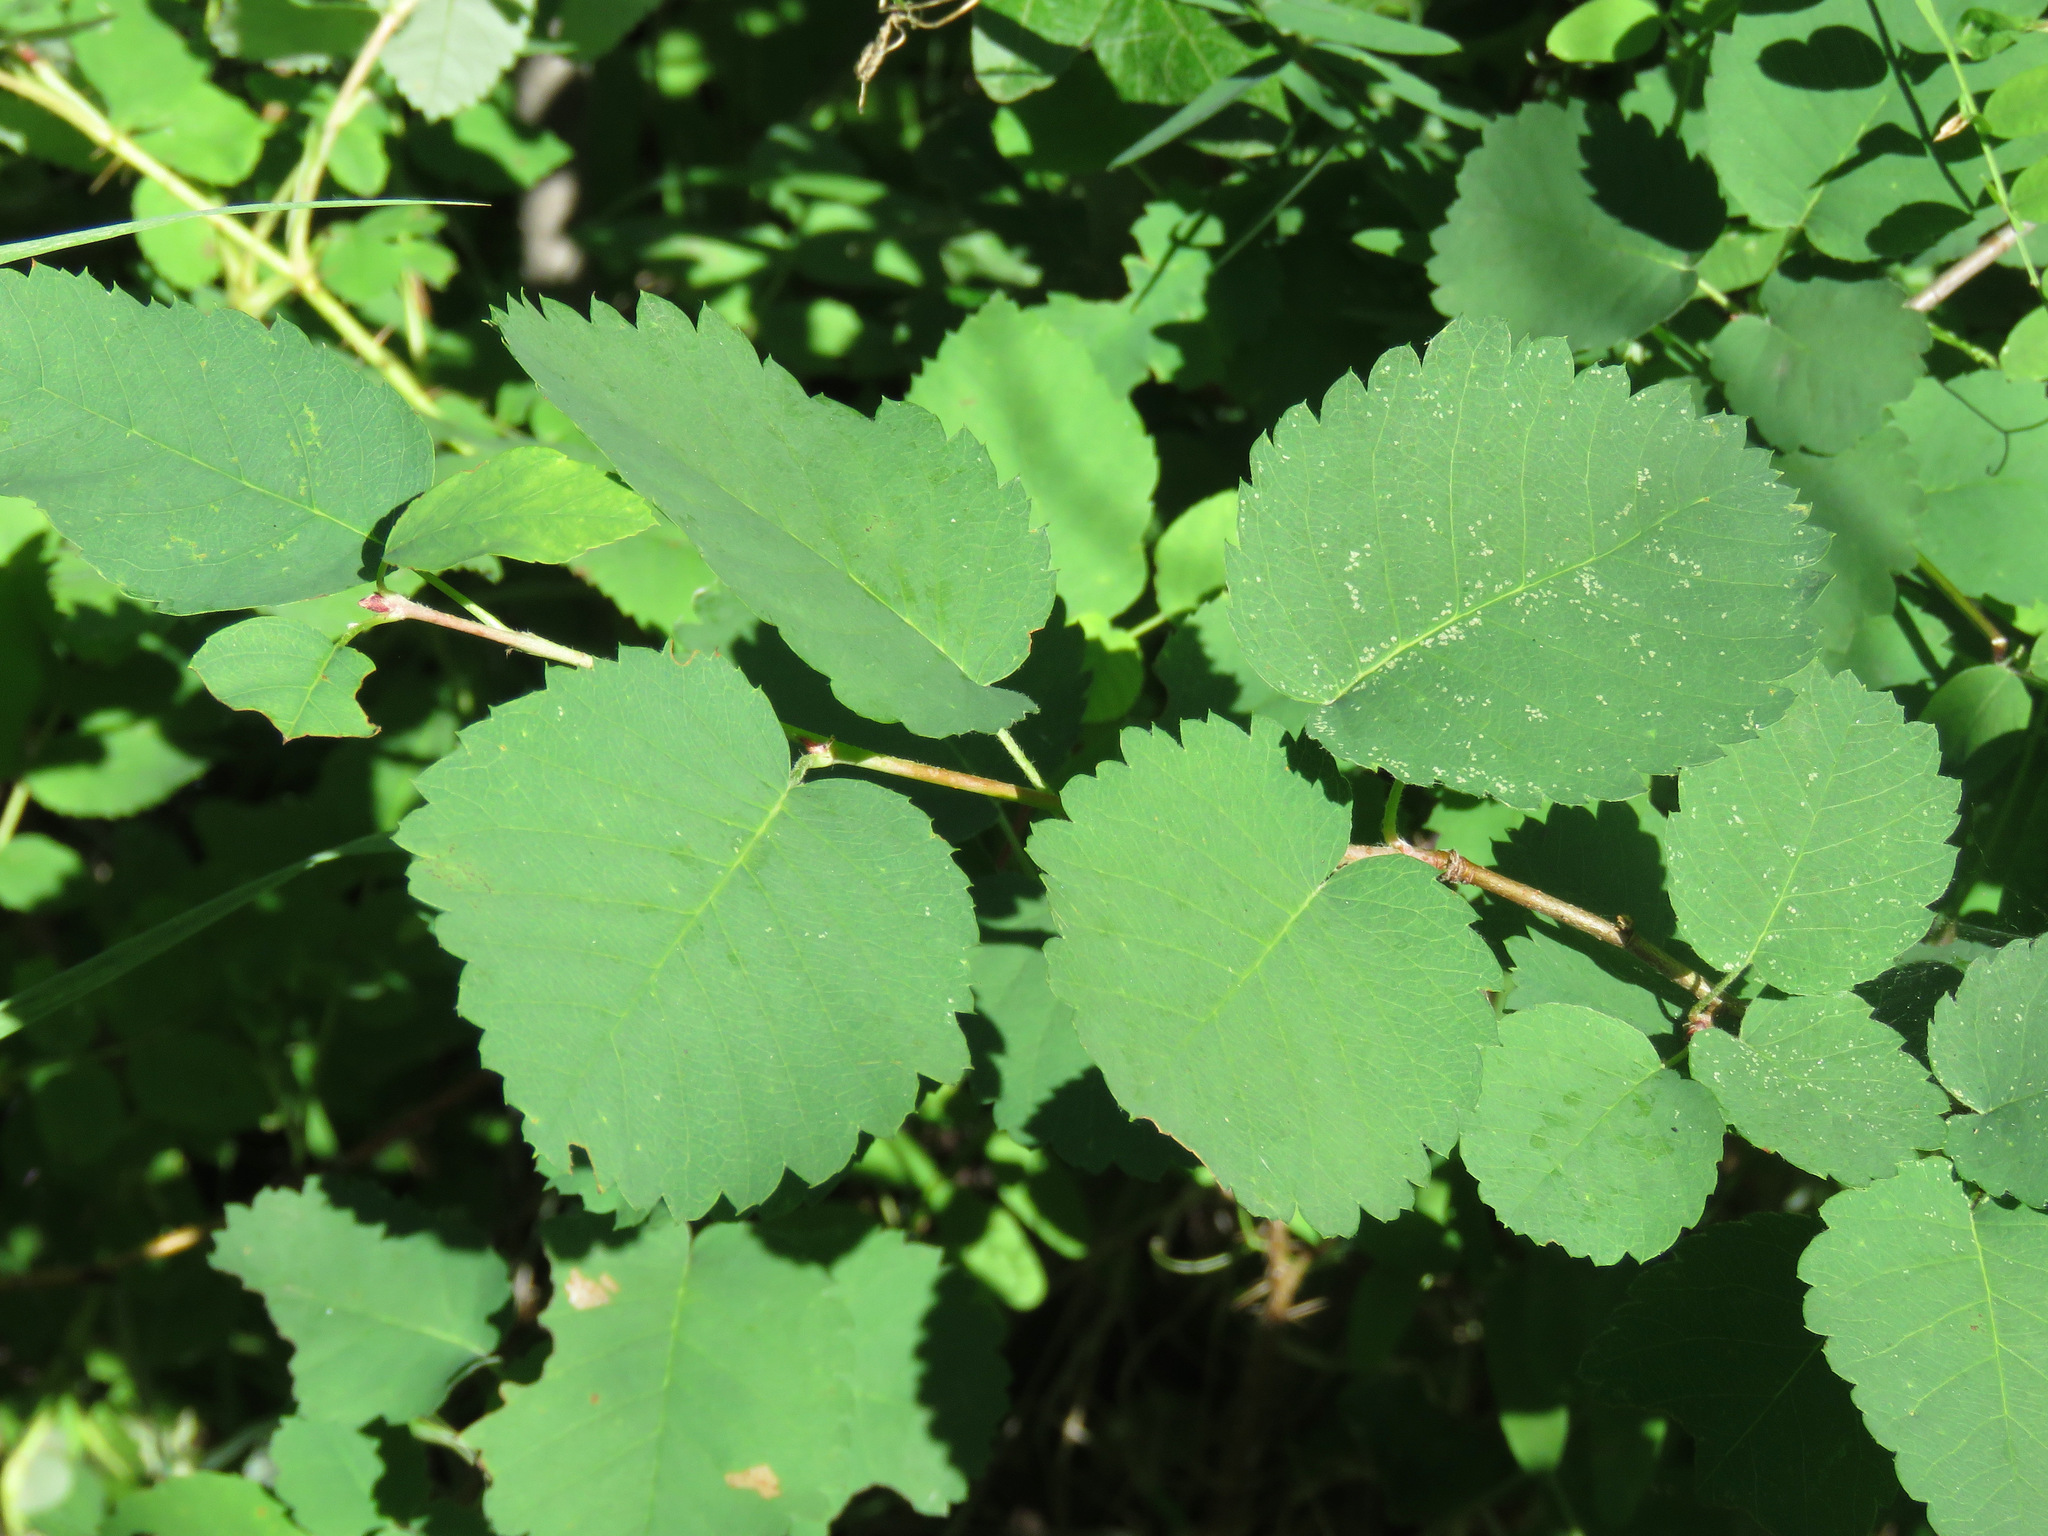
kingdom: Plantae
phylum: Tracheophyta
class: Magnoliopsida
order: Rosales
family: Rosaceae
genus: Amelanchier
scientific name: Amelanchier alnifolia
